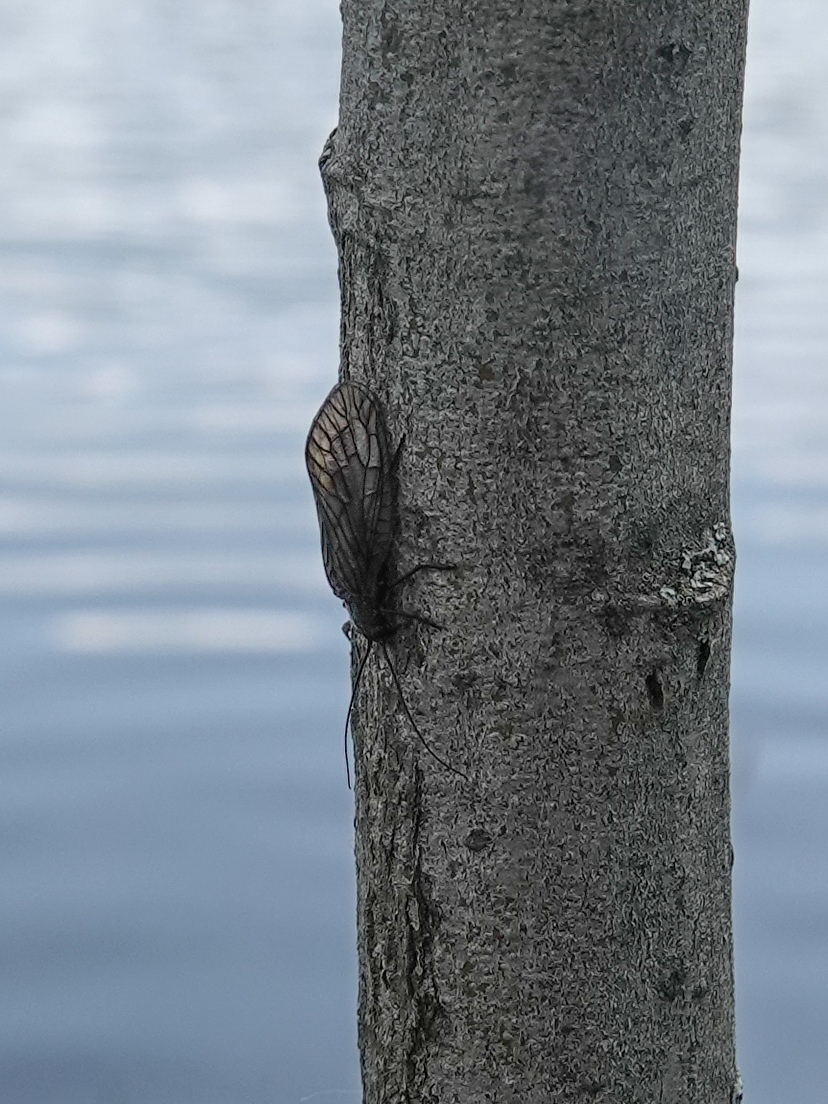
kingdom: Animalia
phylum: Arthropoda
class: Insecta
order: Megaloptera
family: Sialidae
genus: Sialis
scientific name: Sialis
